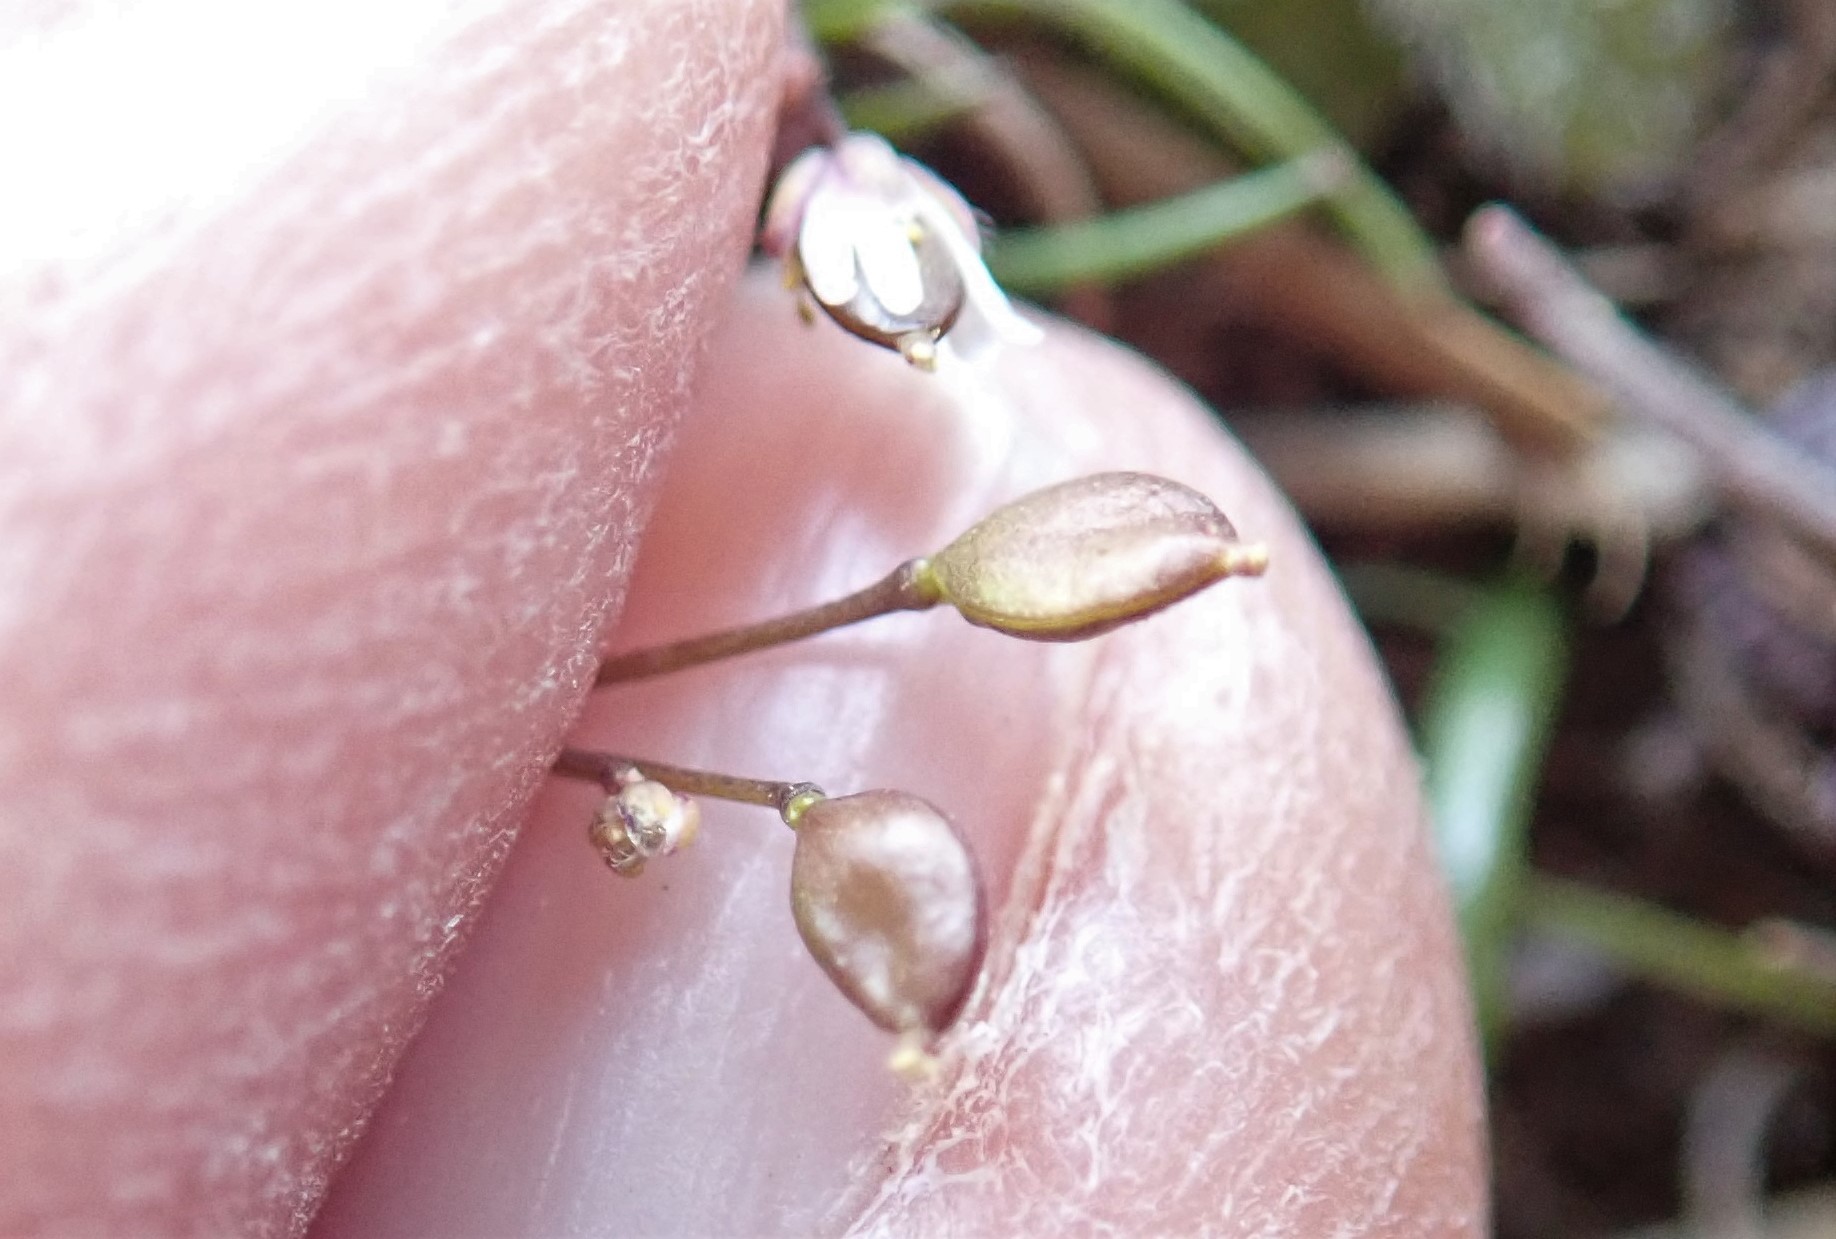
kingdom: Plantae
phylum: Tracheophyta
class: Magnoliopsida
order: Brassicales
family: Brassicaceae
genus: Draba
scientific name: Draba verna
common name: Spring draba
